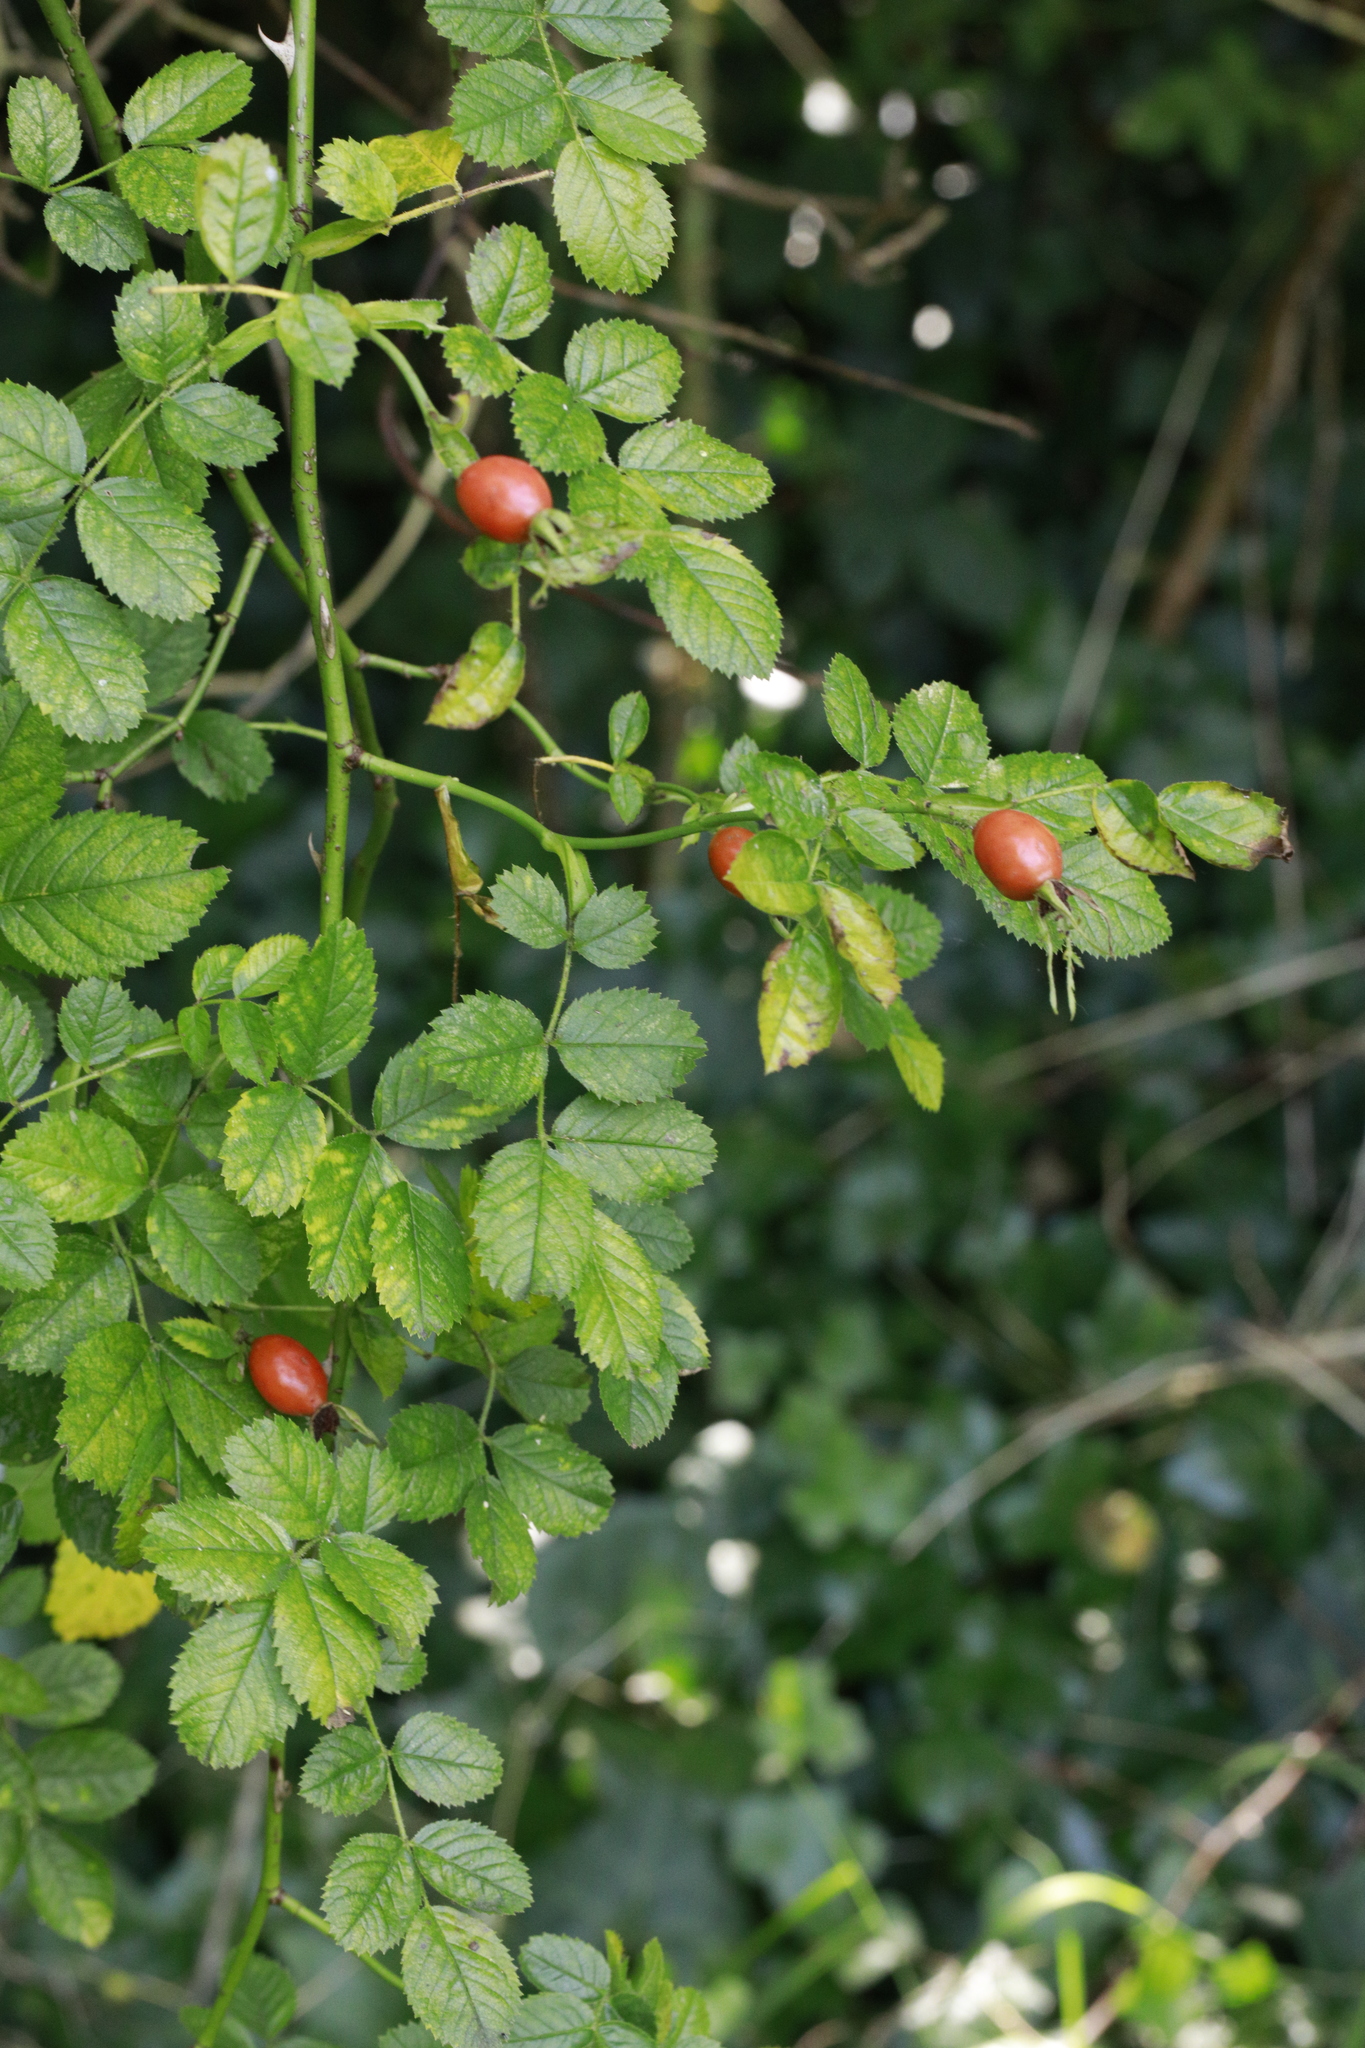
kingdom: Plantae
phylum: Tracheophyta
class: Magnoliopsida
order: Rosales
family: Rosaceae
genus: Rosa
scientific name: Rosa canina
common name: Dog rose
